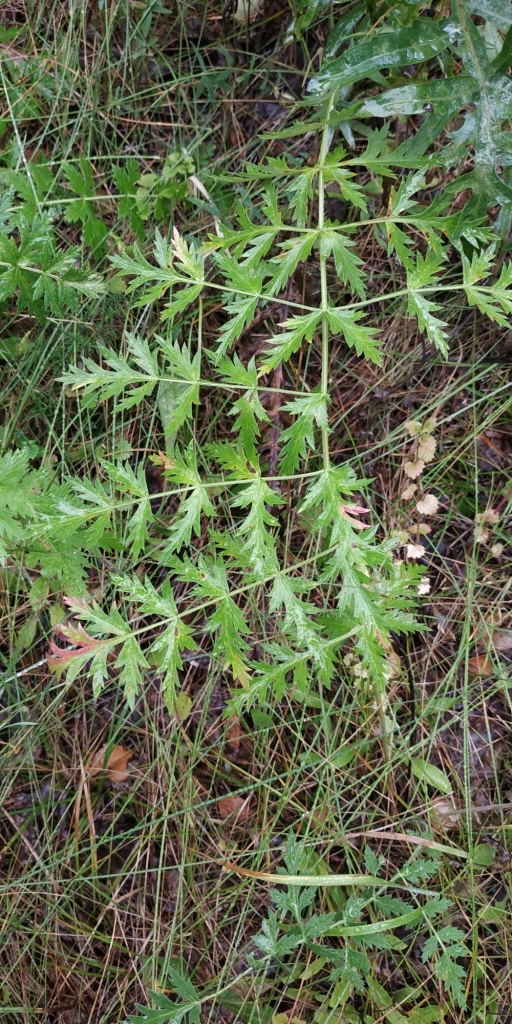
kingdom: Plantae
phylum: Tracheophyta
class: Magnoliopsida
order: Apiales
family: Apiaceae
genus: Seseli
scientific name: Seseli libanotis
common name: Mooncarrot
